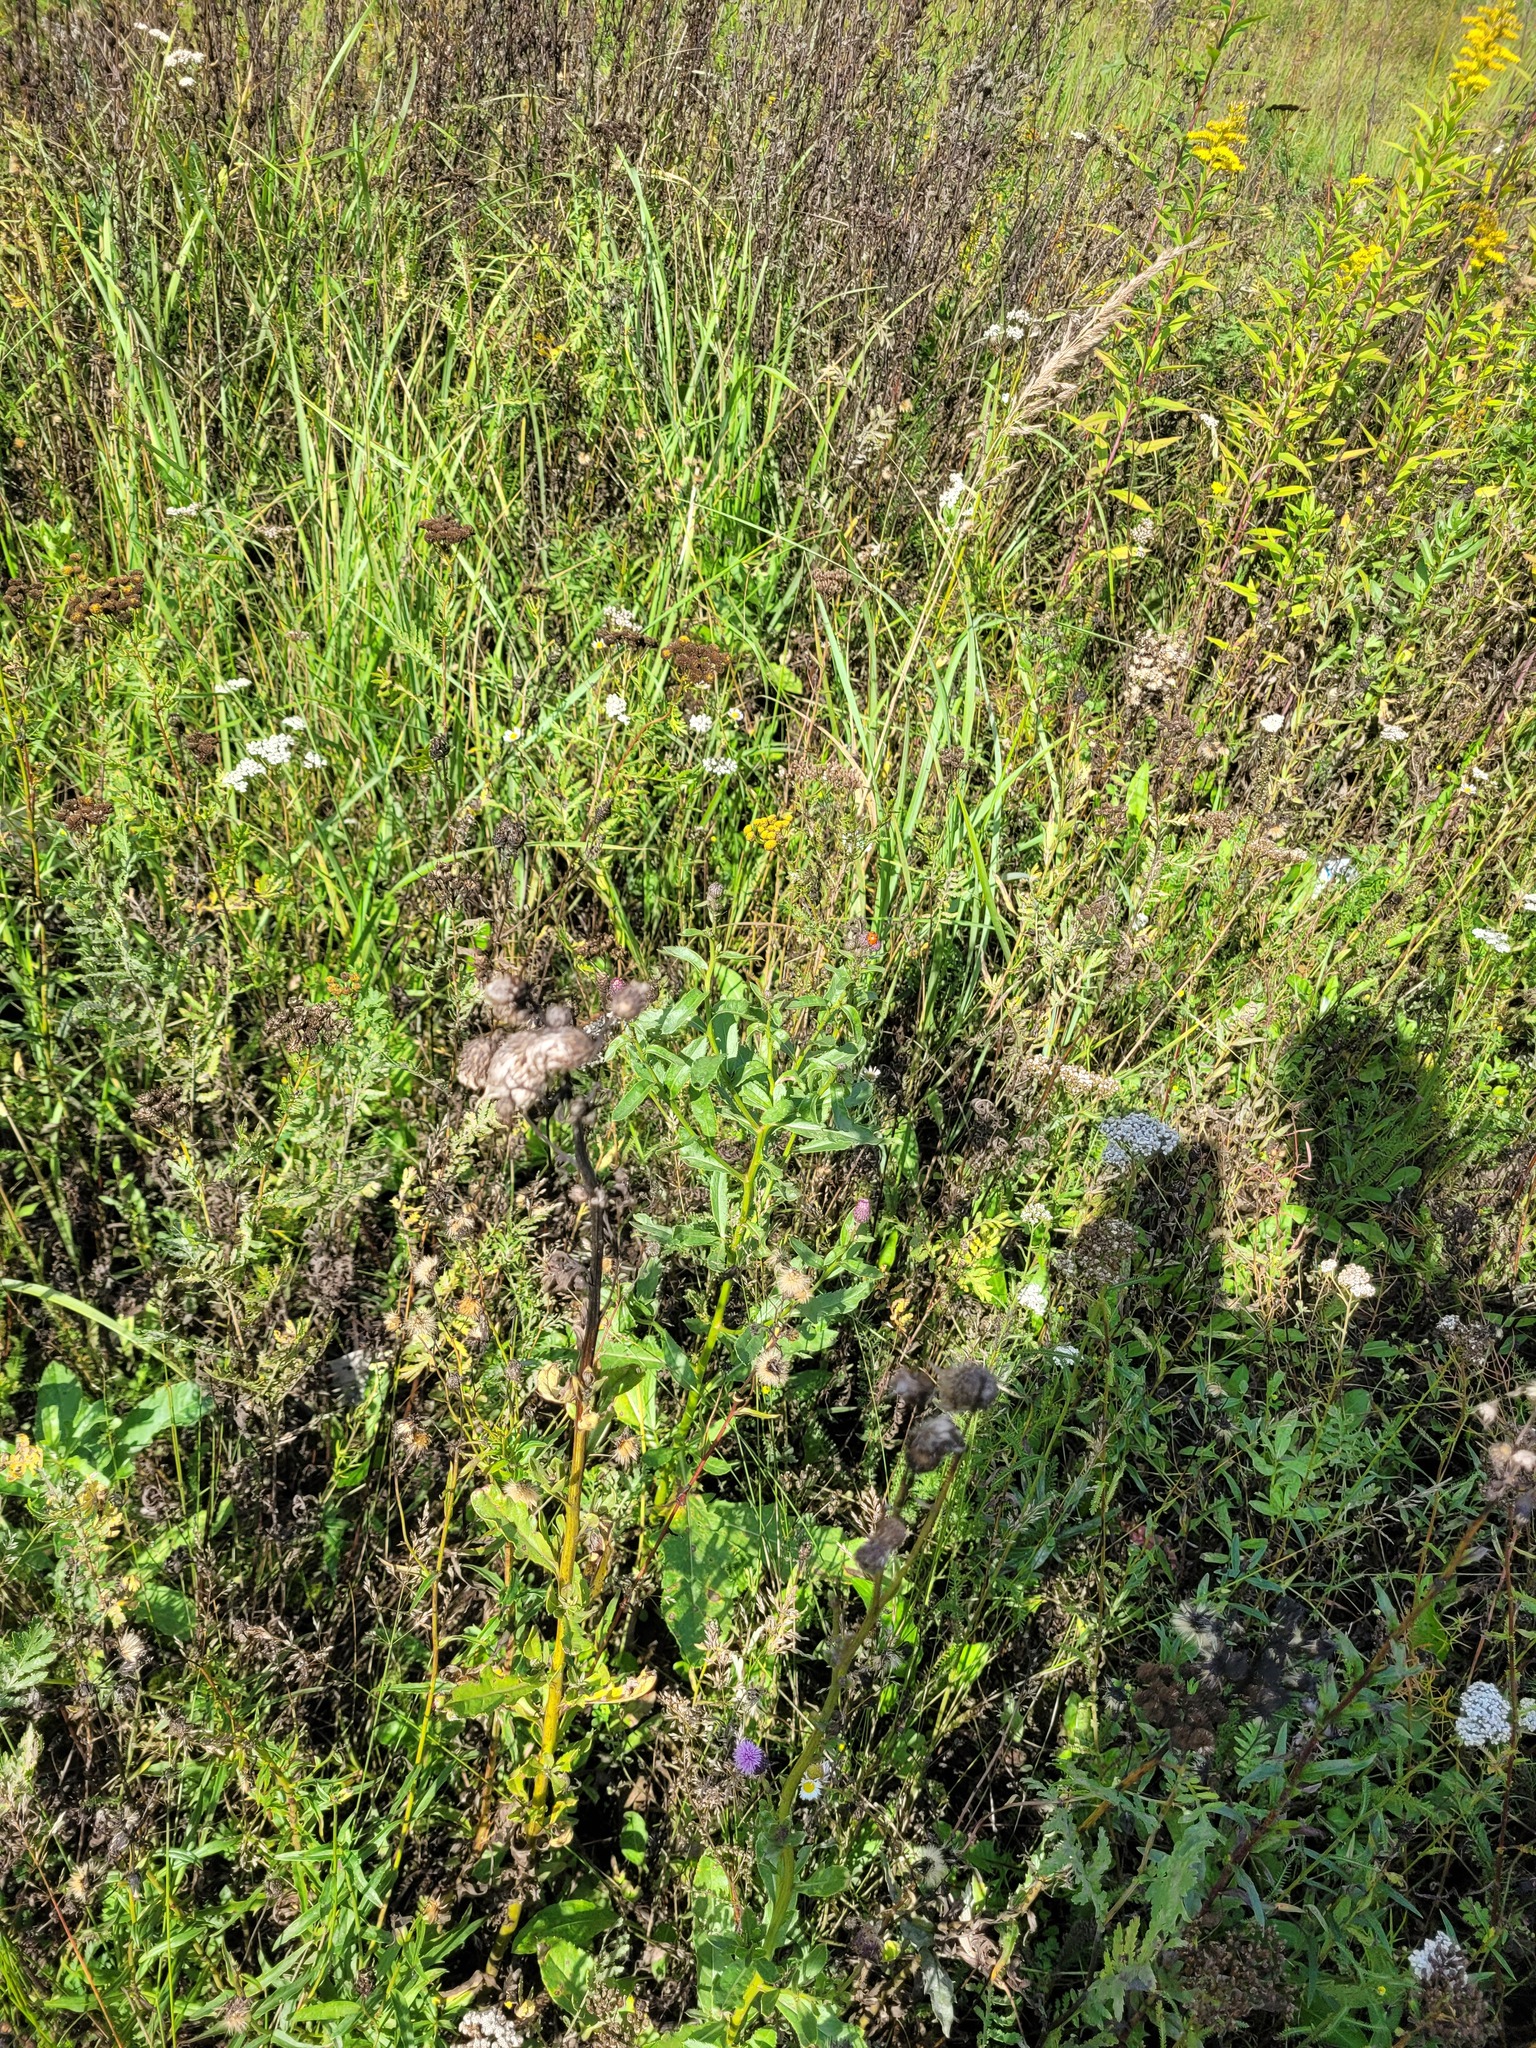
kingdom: Plantae
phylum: Tracheophyta
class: Magnoliopsida
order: Asterales
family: Asteraceae
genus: Cirsium
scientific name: Cirsium arvense
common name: Creeping thistle
